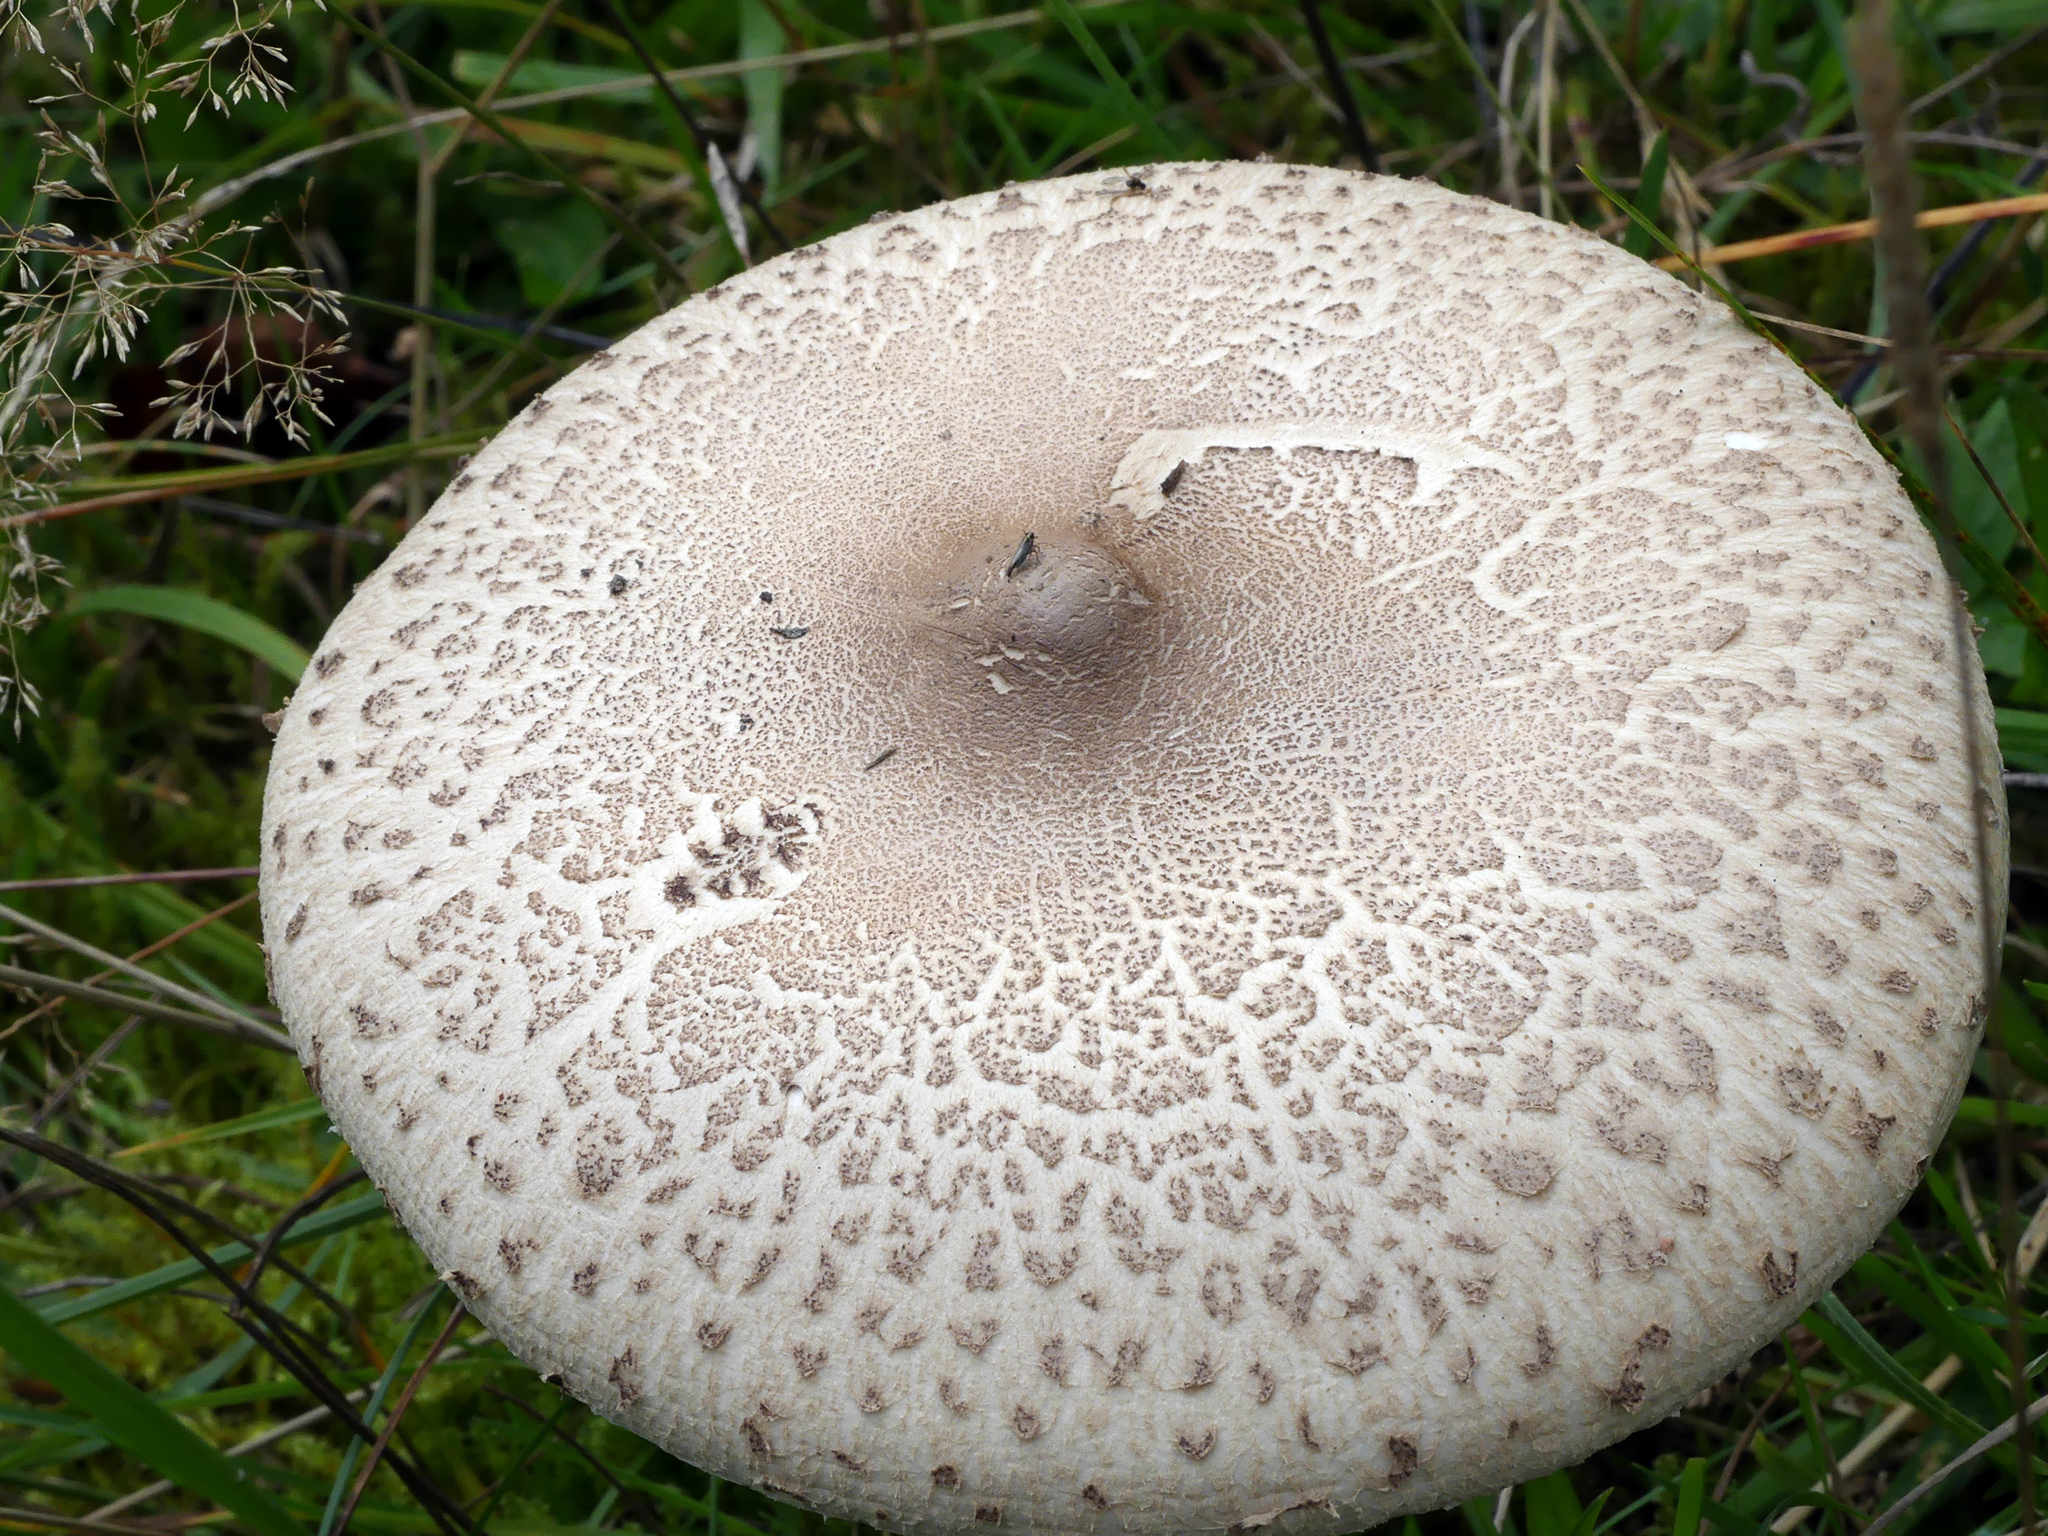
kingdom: Fungi
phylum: Basidiomycota
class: Agaricomycetes
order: Agaricales
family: Agaricaceae
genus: Macrolepiota
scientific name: Macrolepiota mastoidea
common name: Slender parasol
